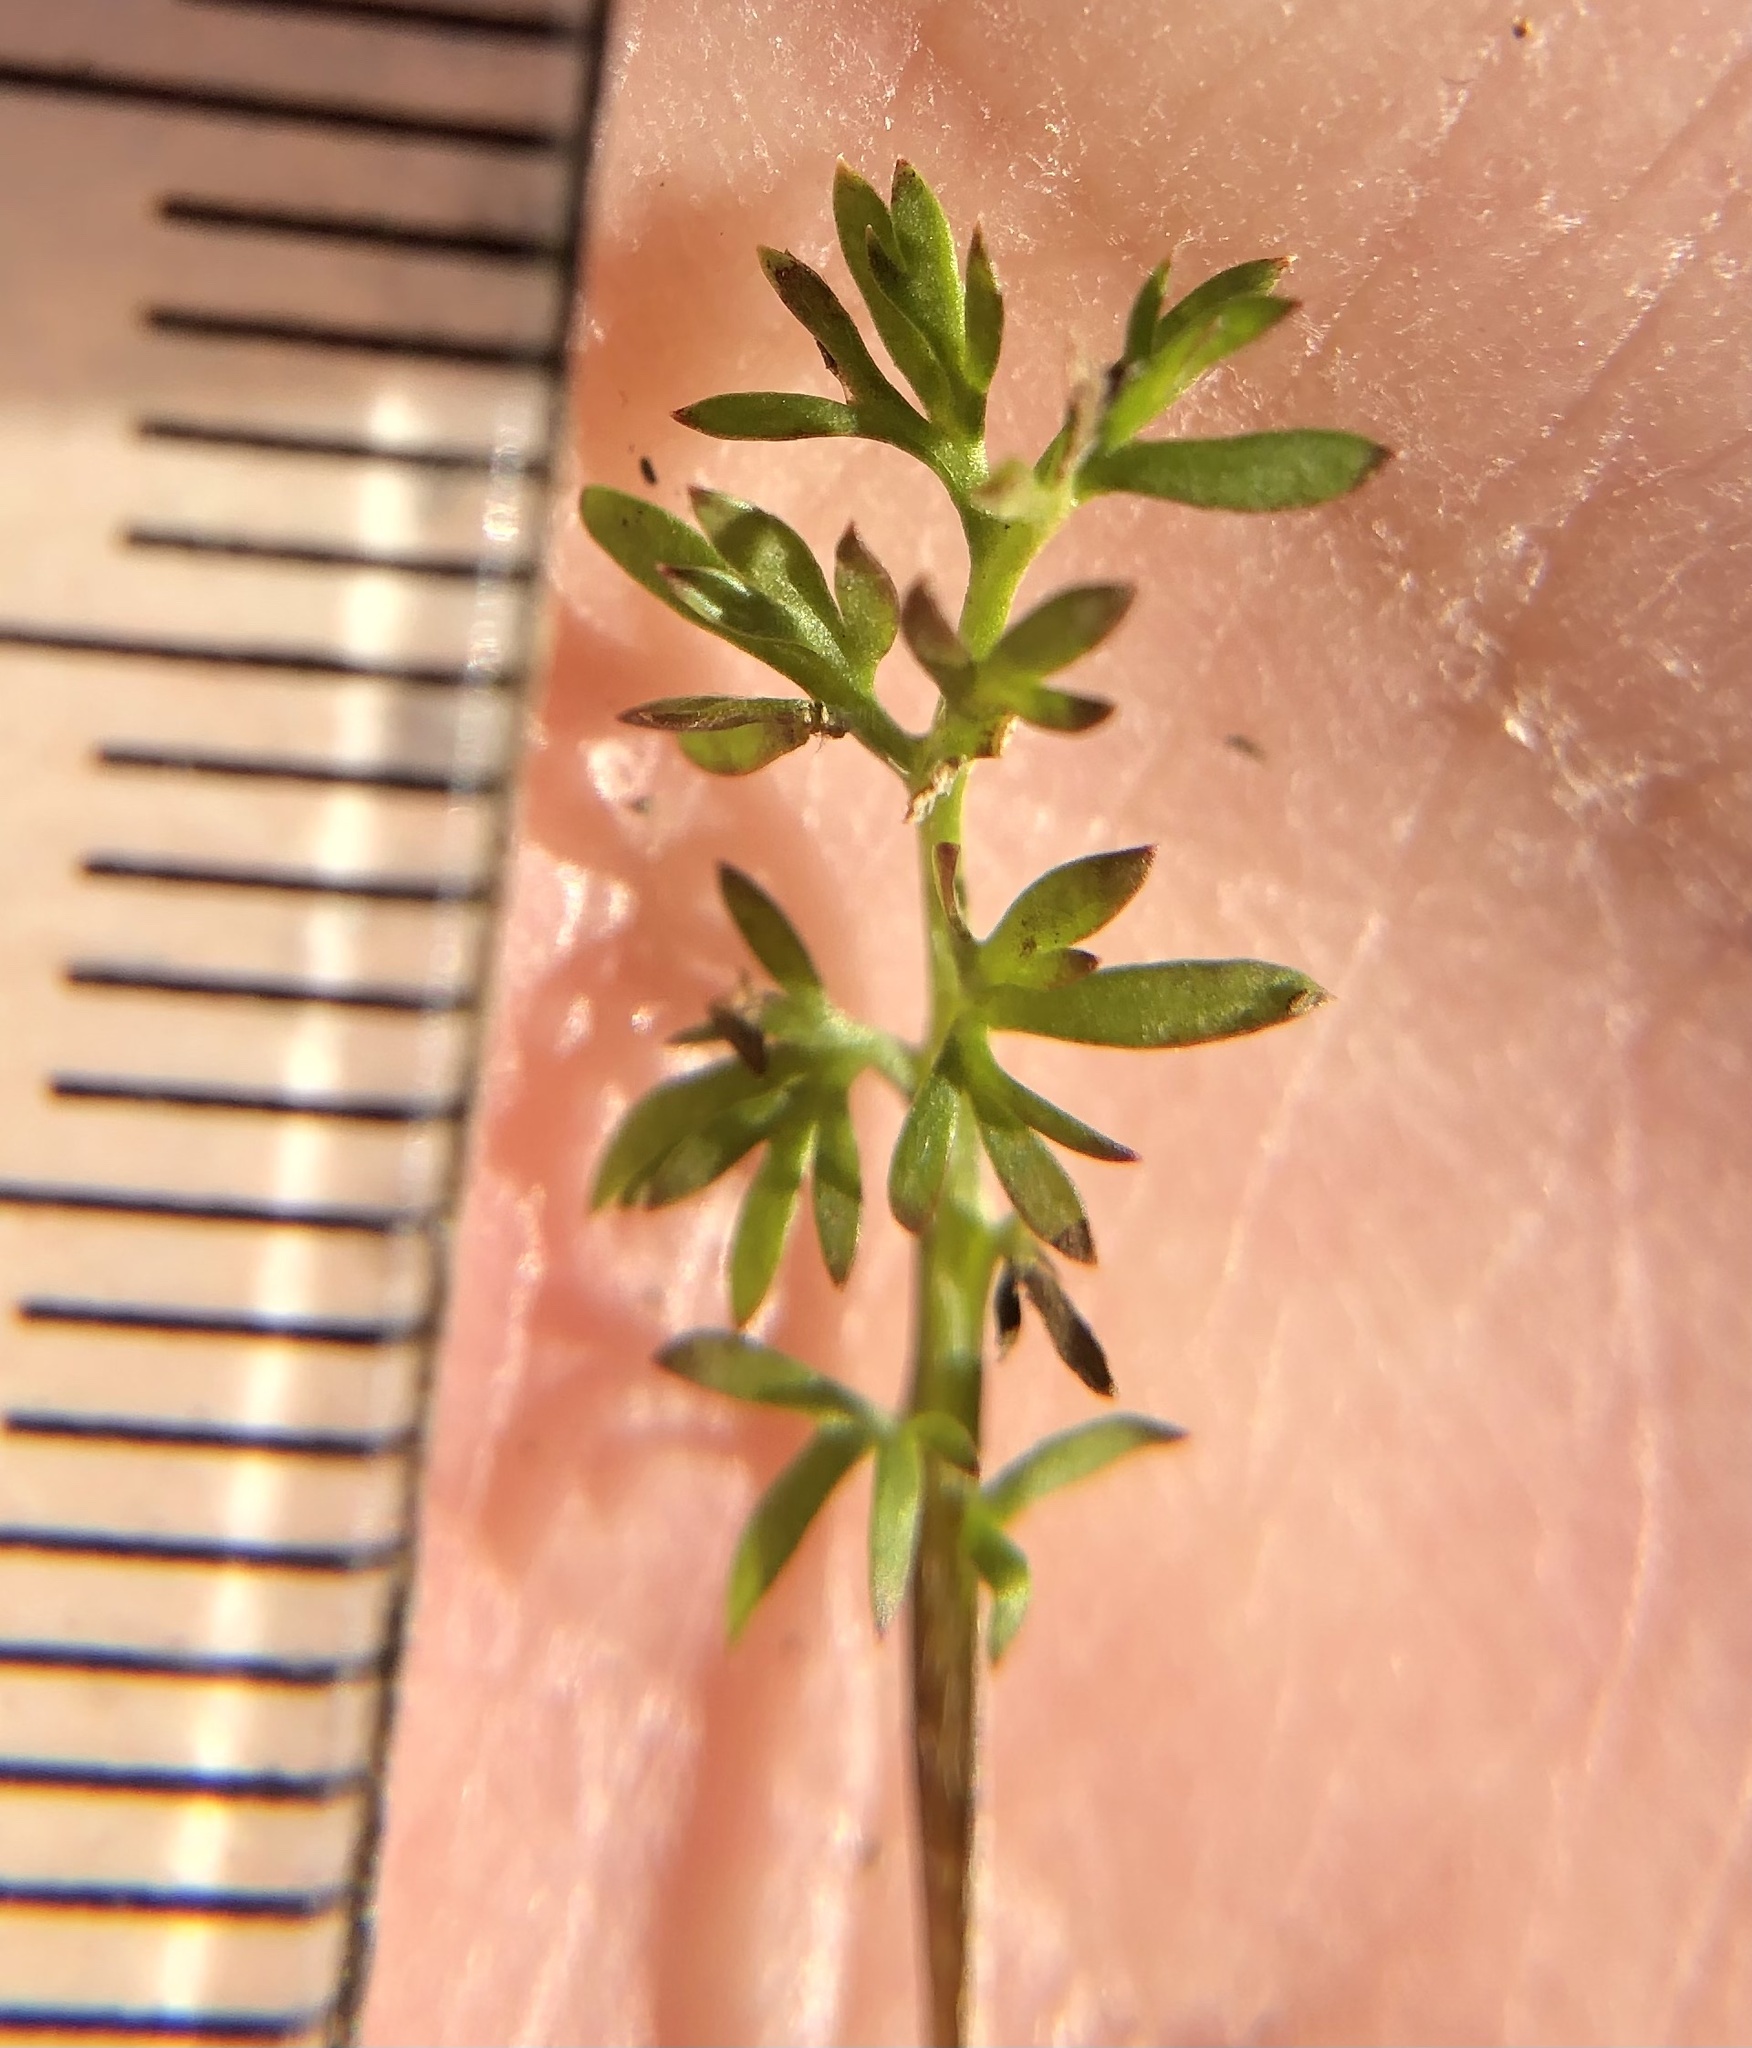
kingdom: Plantae
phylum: Tracheophyta
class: Magnoliopsida
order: Asterales
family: Asteraceae
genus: Soliva
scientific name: Soliva sessilis
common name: Field burrweed
